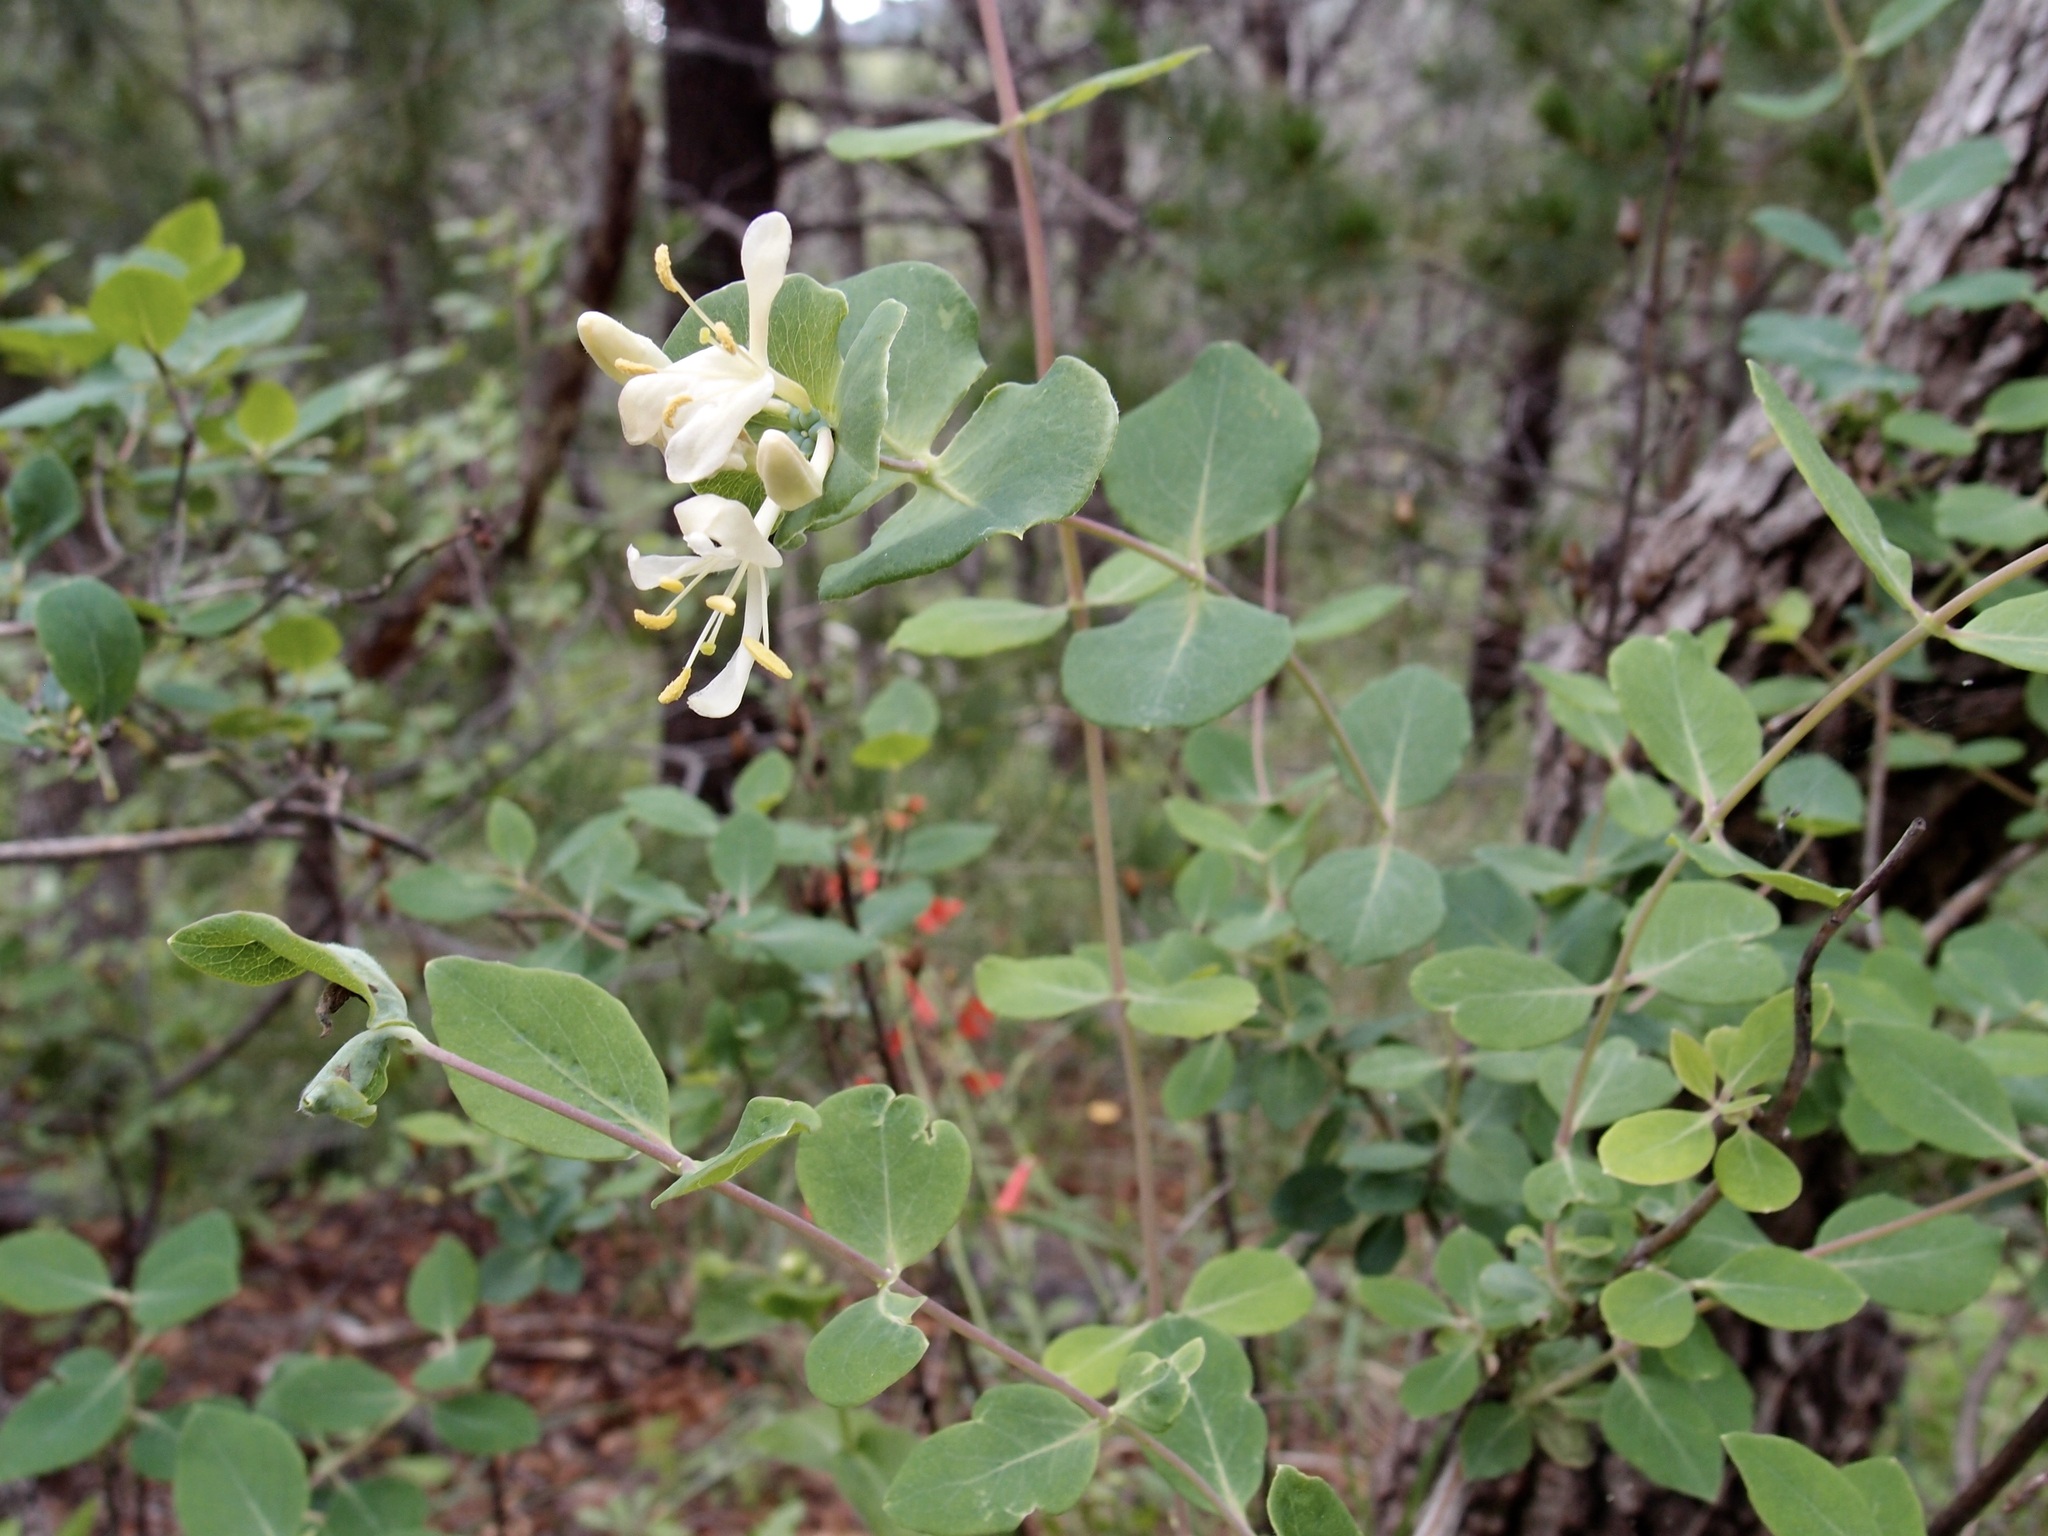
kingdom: Plantae
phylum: Tracheophyta
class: Magnoliopsida
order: Dipsacales
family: Caprifoliaceae
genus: Lonicera
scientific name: Lonicera albiflora
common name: White honeysuckle
